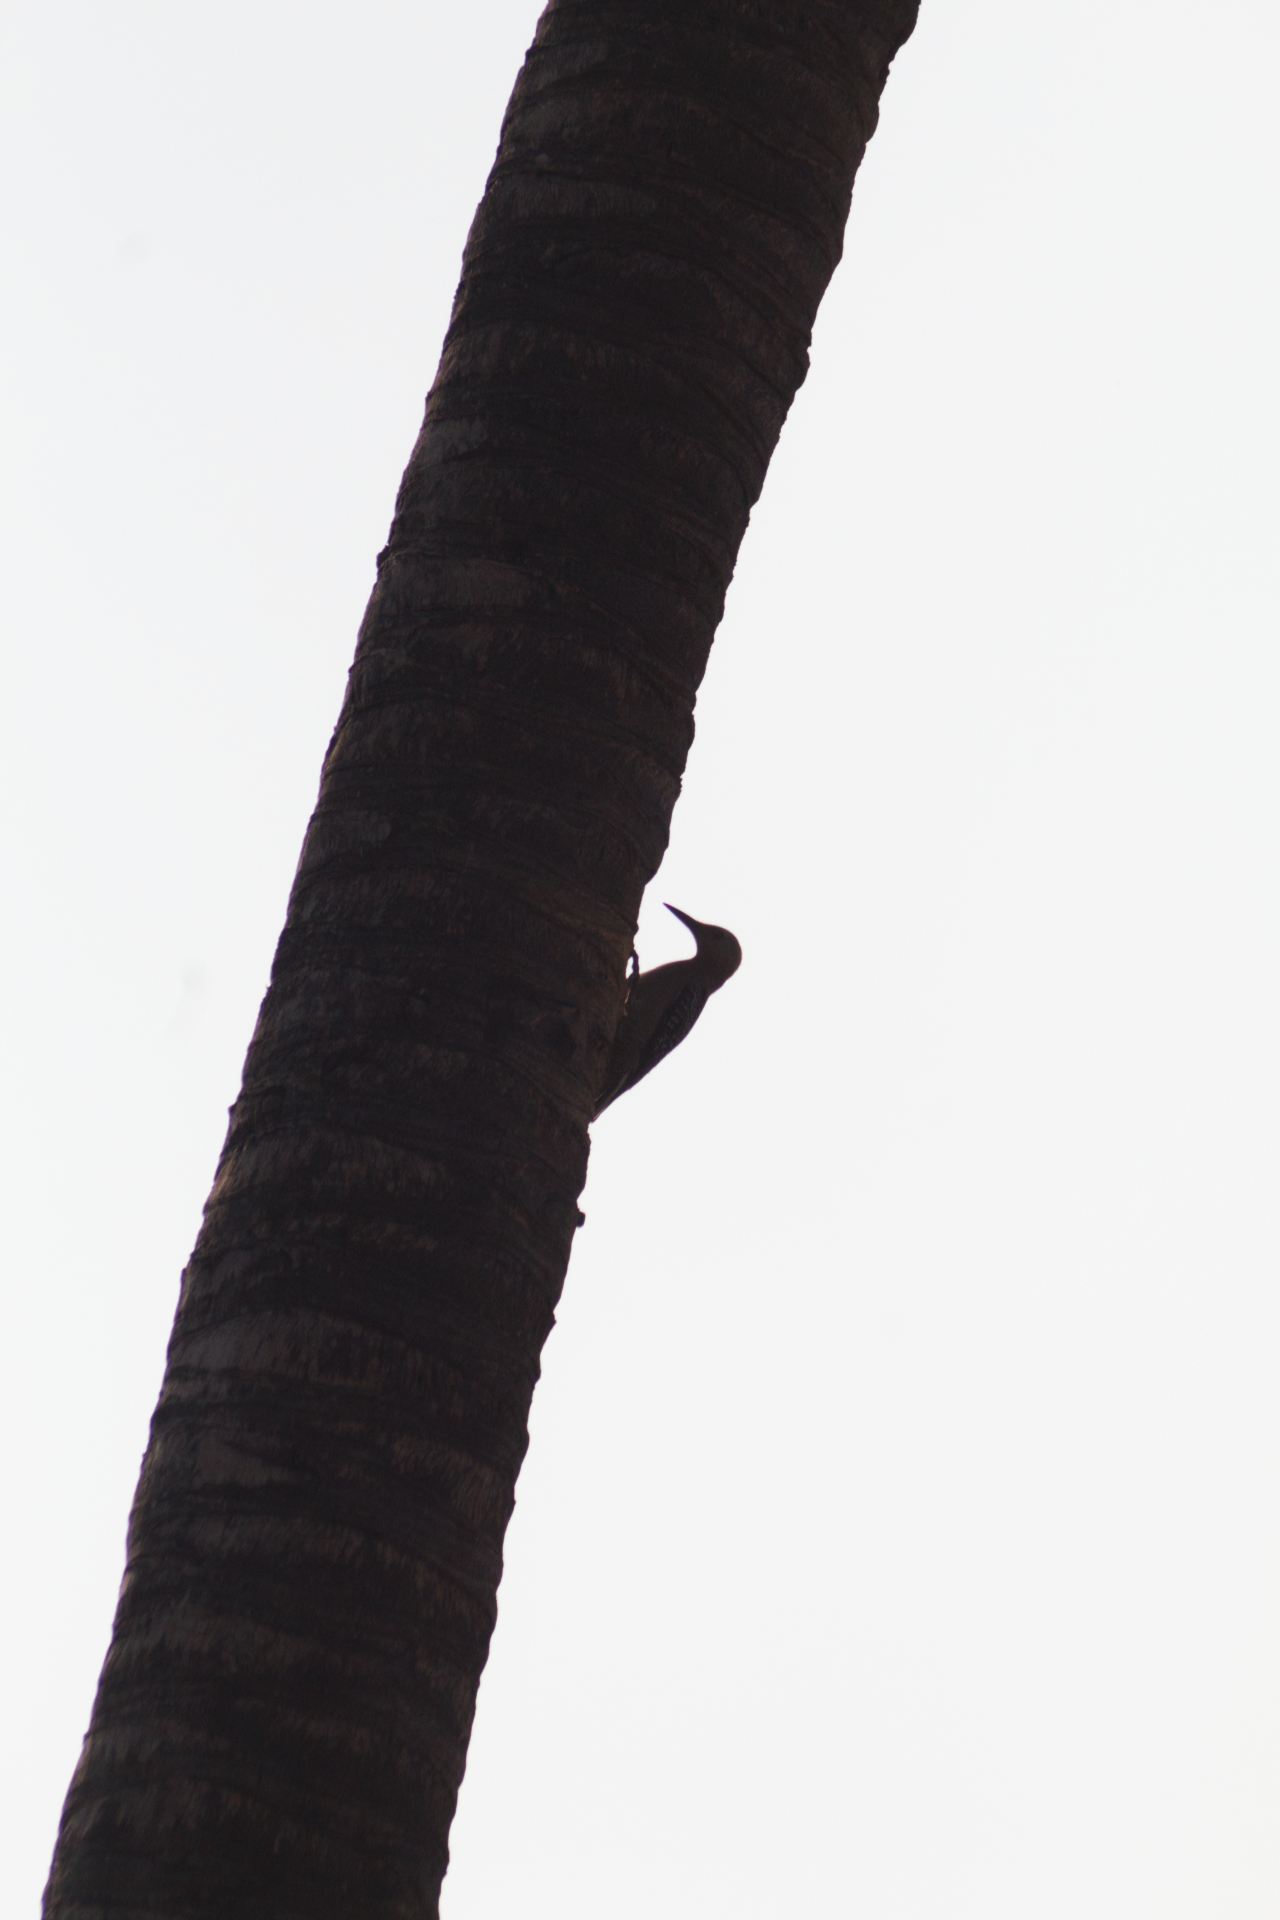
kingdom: Animalia
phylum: Chordata
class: Aves
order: Piciformes
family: Picidae
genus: Melanerpes
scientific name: Melanerpes aurifrons
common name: Golden-fronted woodpecker
